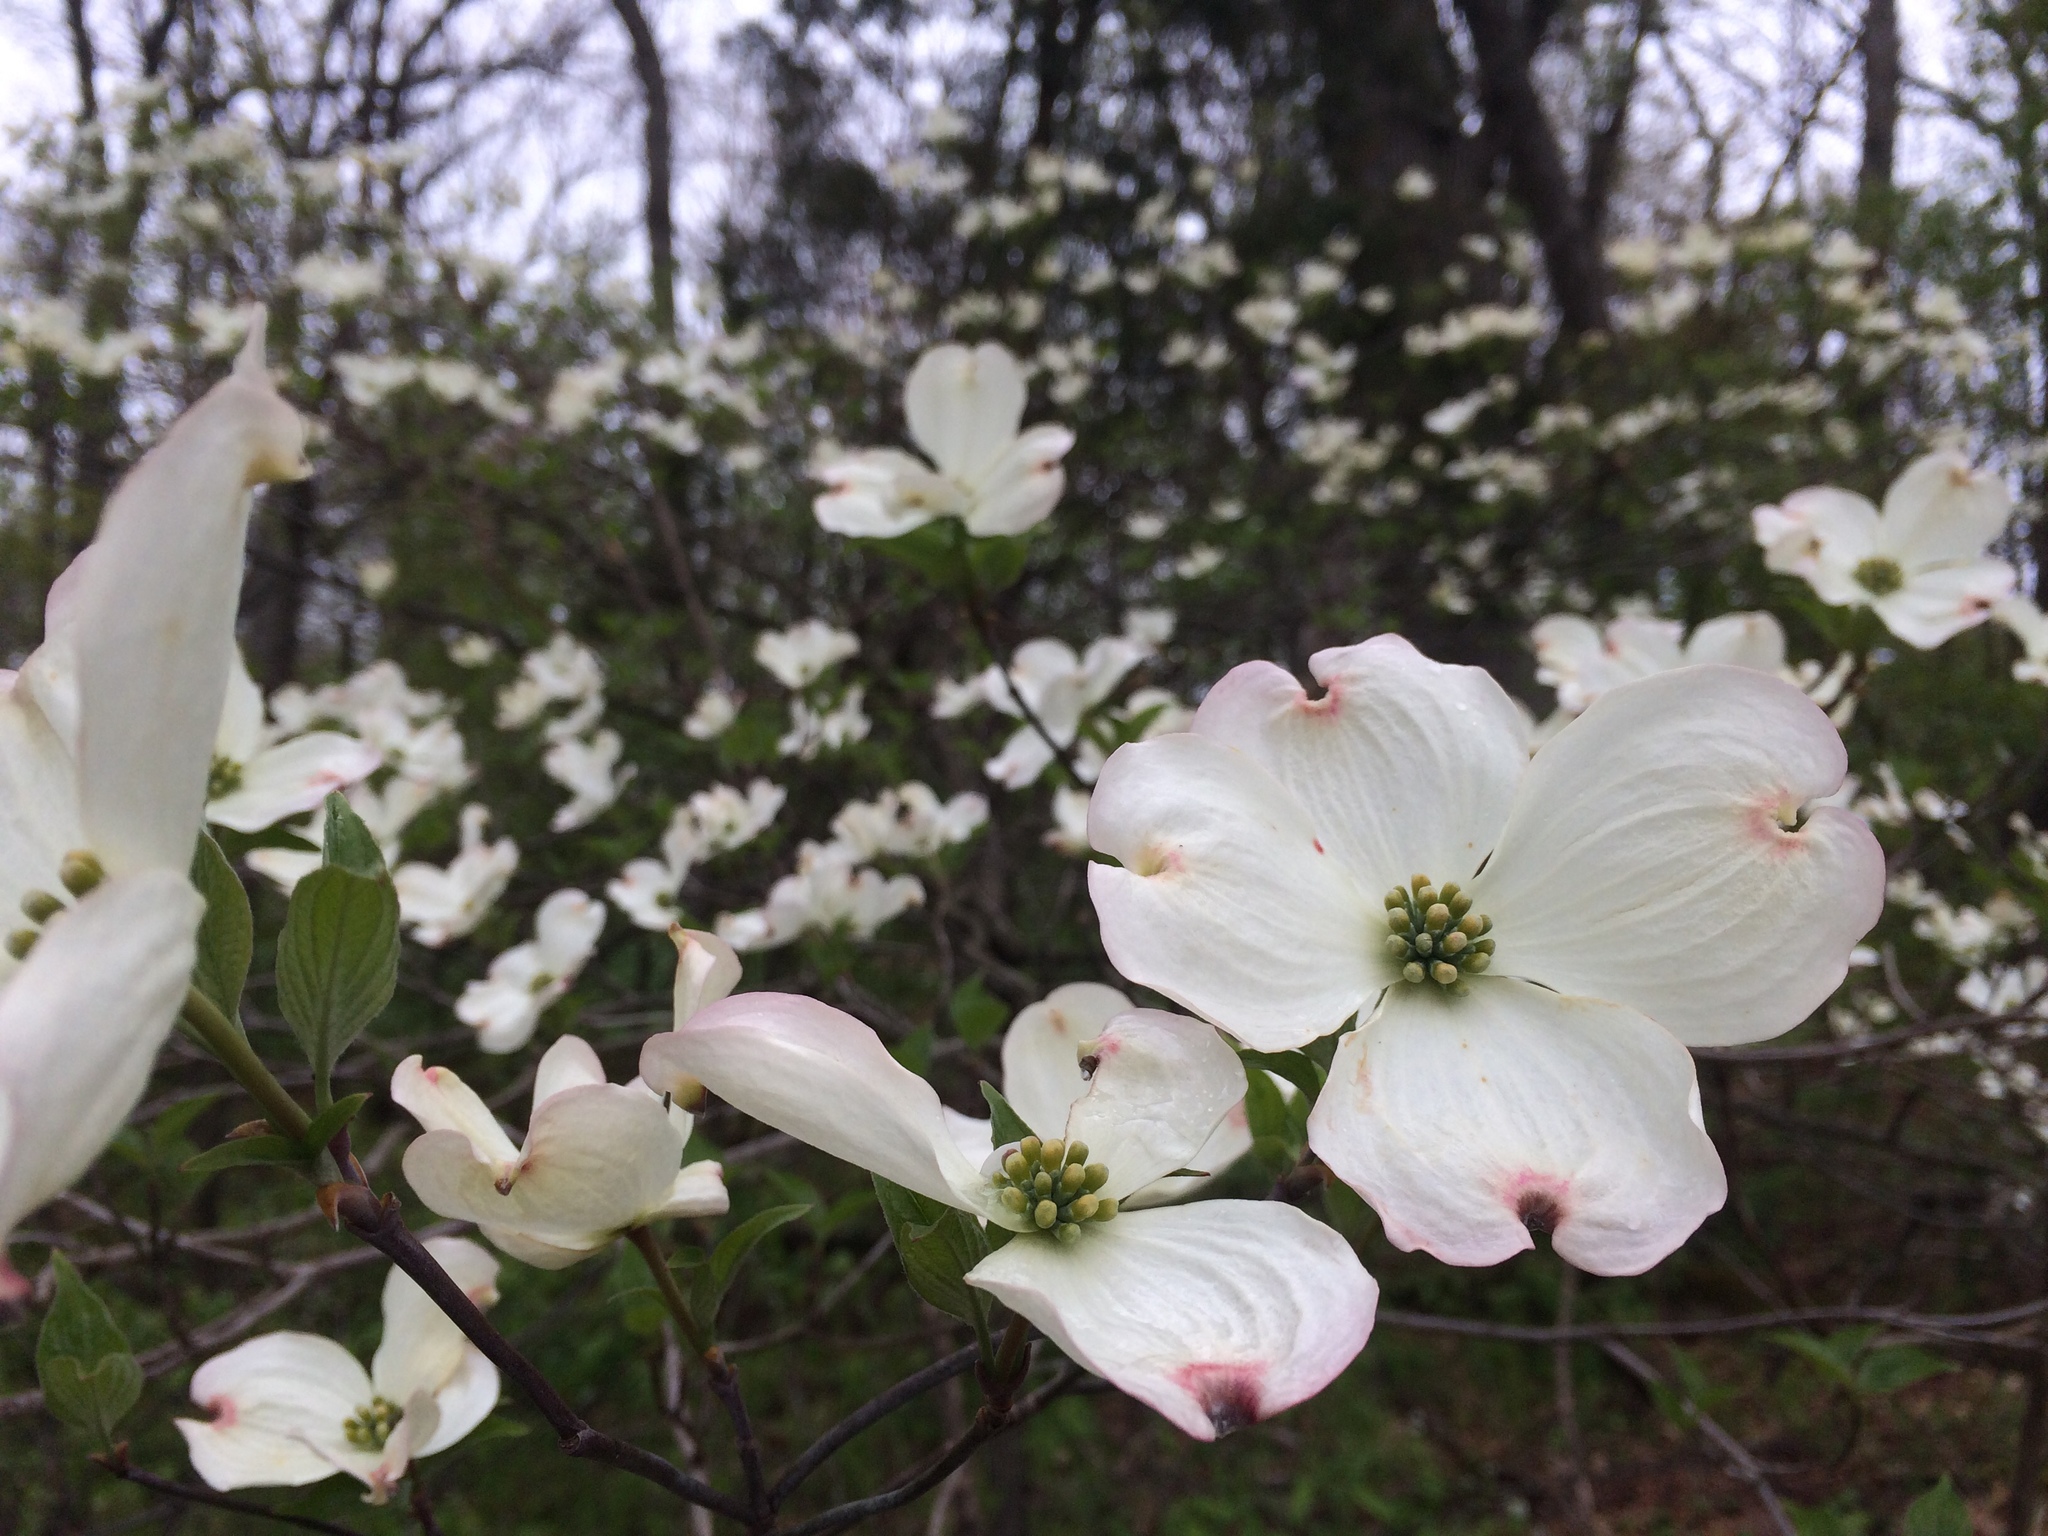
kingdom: Plantae
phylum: Tracheophyta
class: Magnoliopsida
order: Cornales
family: Cornaceae
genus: Cornus
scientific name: Cornus florida
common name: Flowering dogwood
